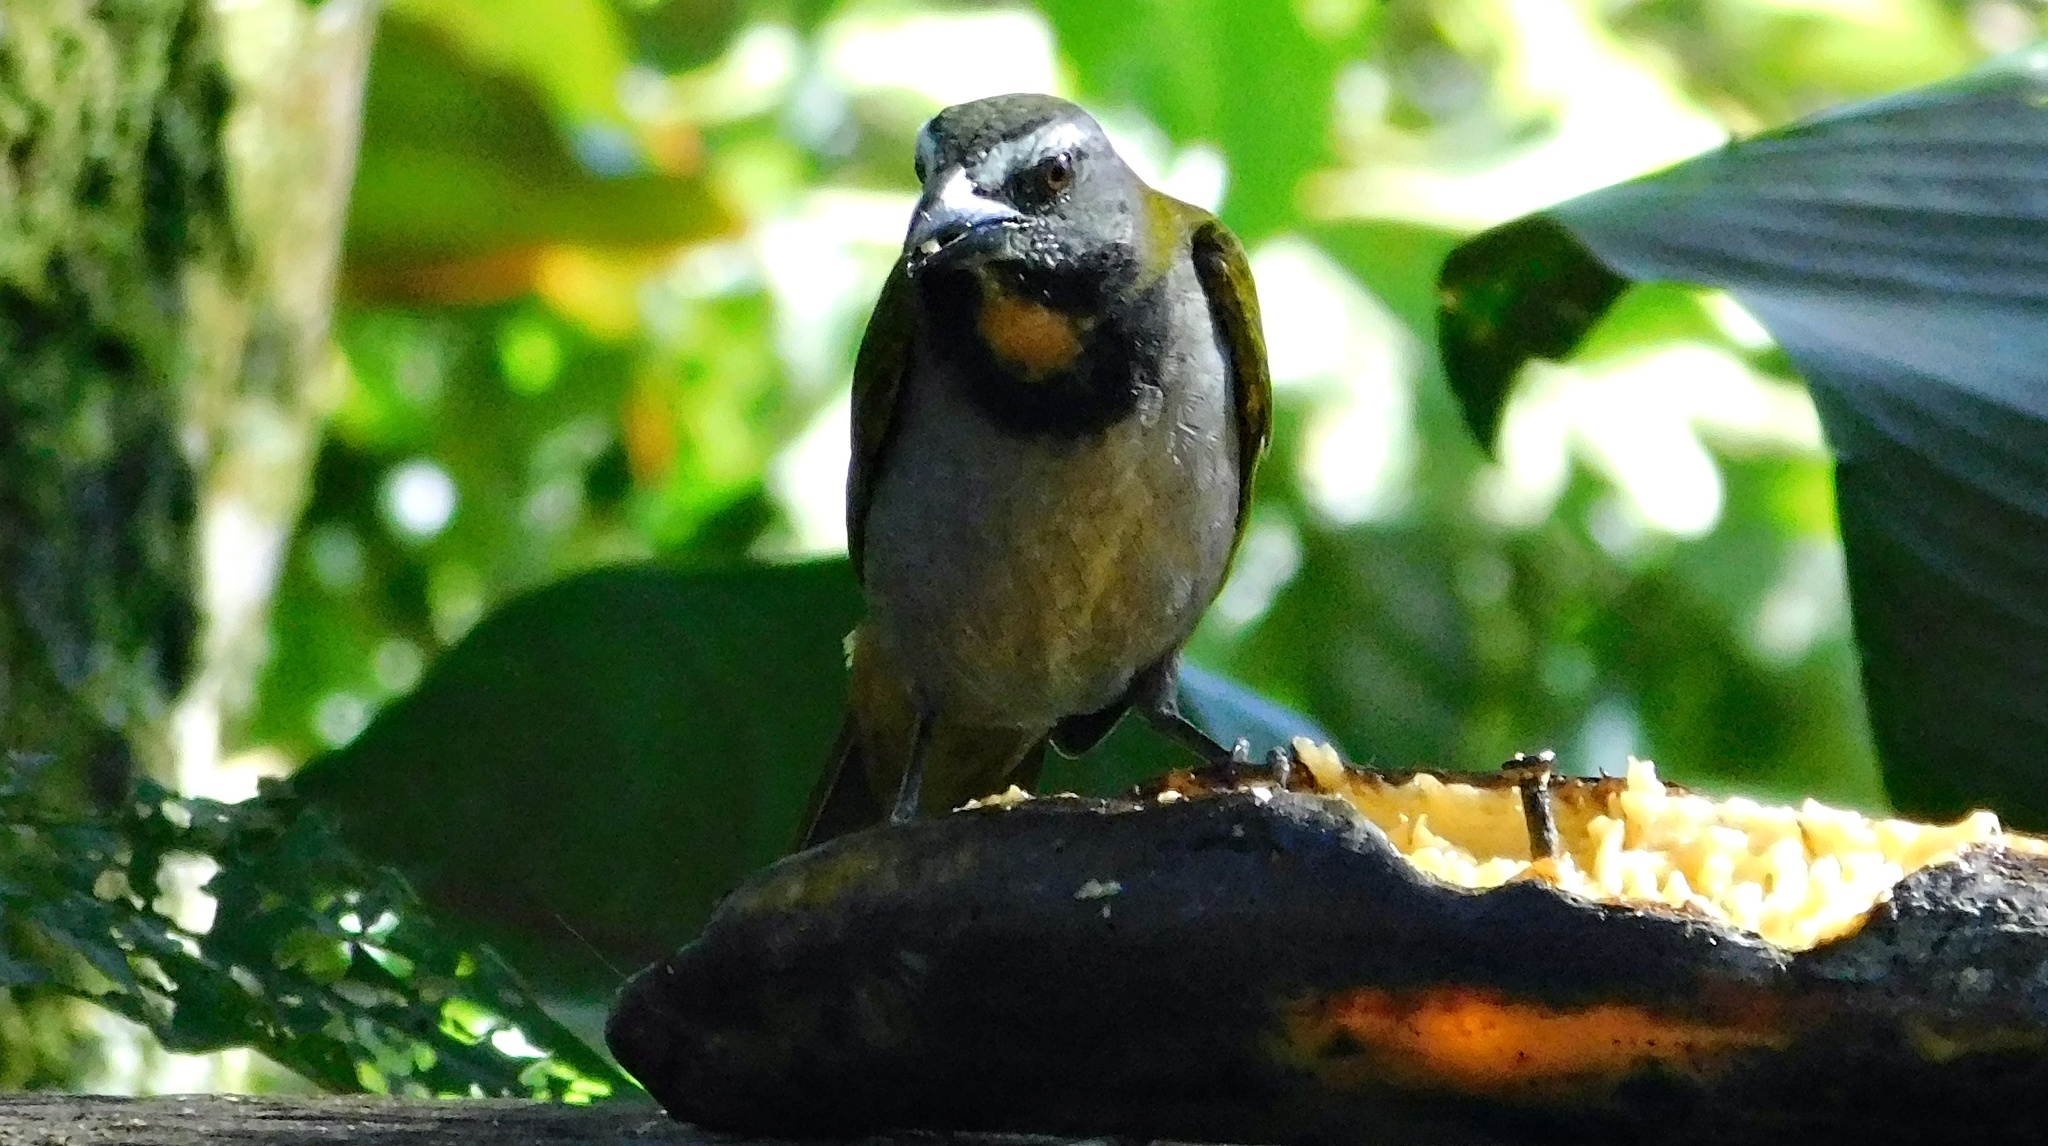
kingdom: Animalia
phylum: Chordata
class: Aves
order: Passeriformes
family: Thraupidae
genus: Saltator
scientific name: Saltator maximus
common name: Buff-throated saltator
